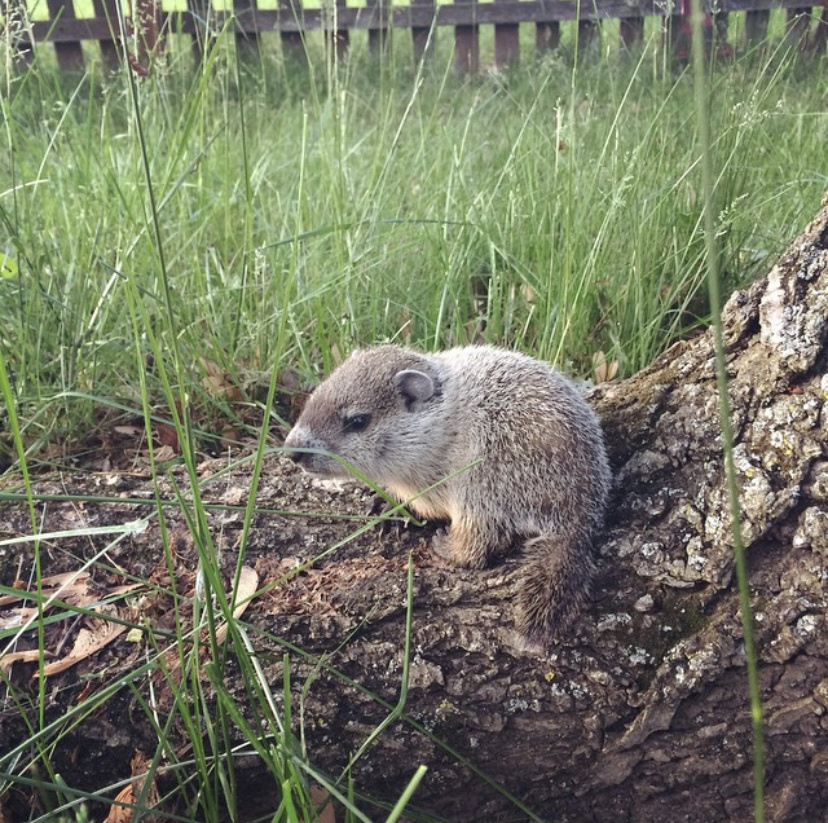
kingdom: Animalia
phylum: Chordata
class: Mammalia
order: Rodentia
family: Sciuridae
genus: Marmota
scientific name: Marmota monax
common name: Groundhog
